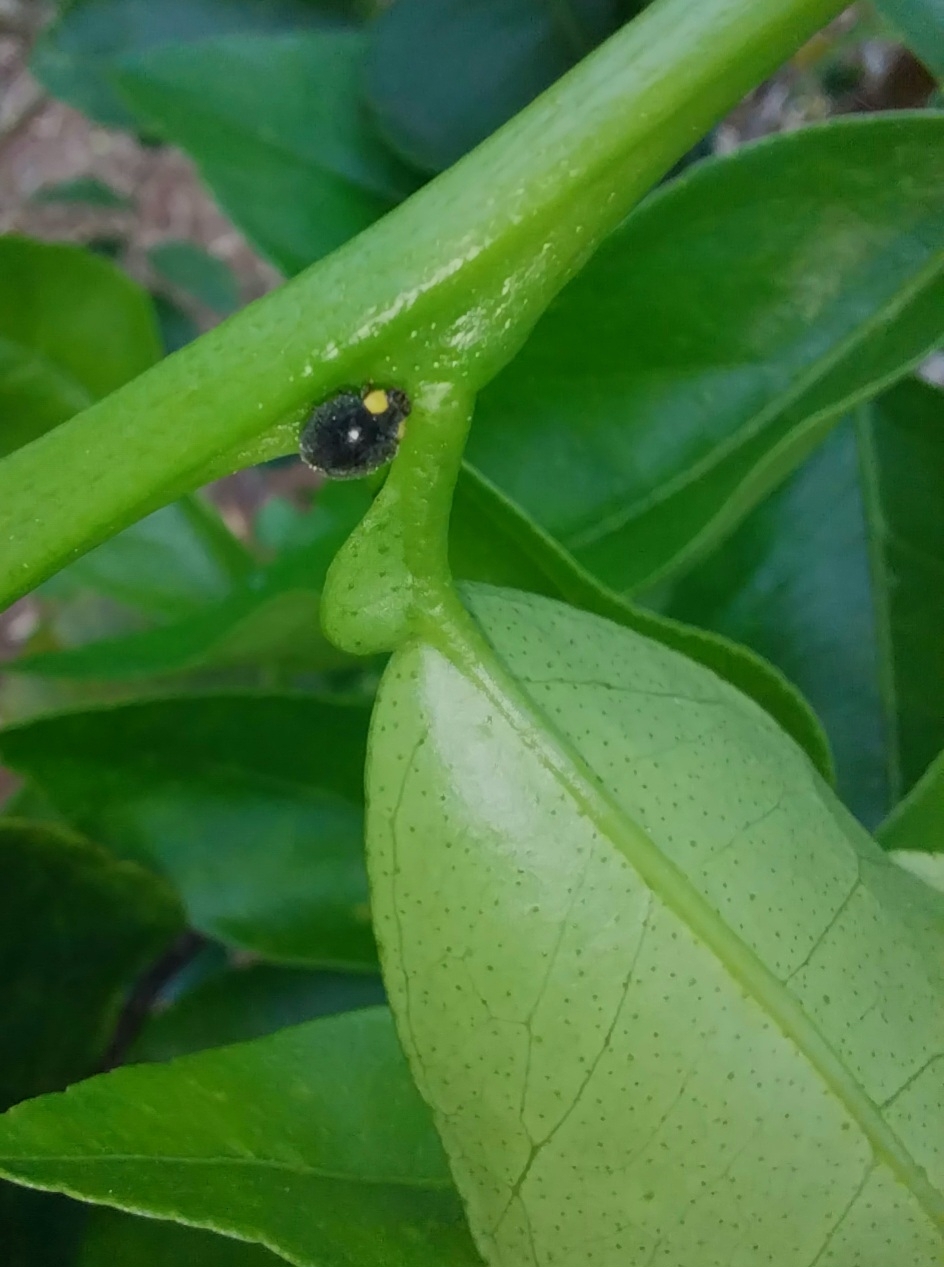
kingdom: Animalia
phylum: Arthropoda
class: Insecta
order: Coleoptera
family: Coccinellidae
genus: Scymnodes
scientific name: Scymnodes lividigaster
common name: Yellowshouldered lady beetle
